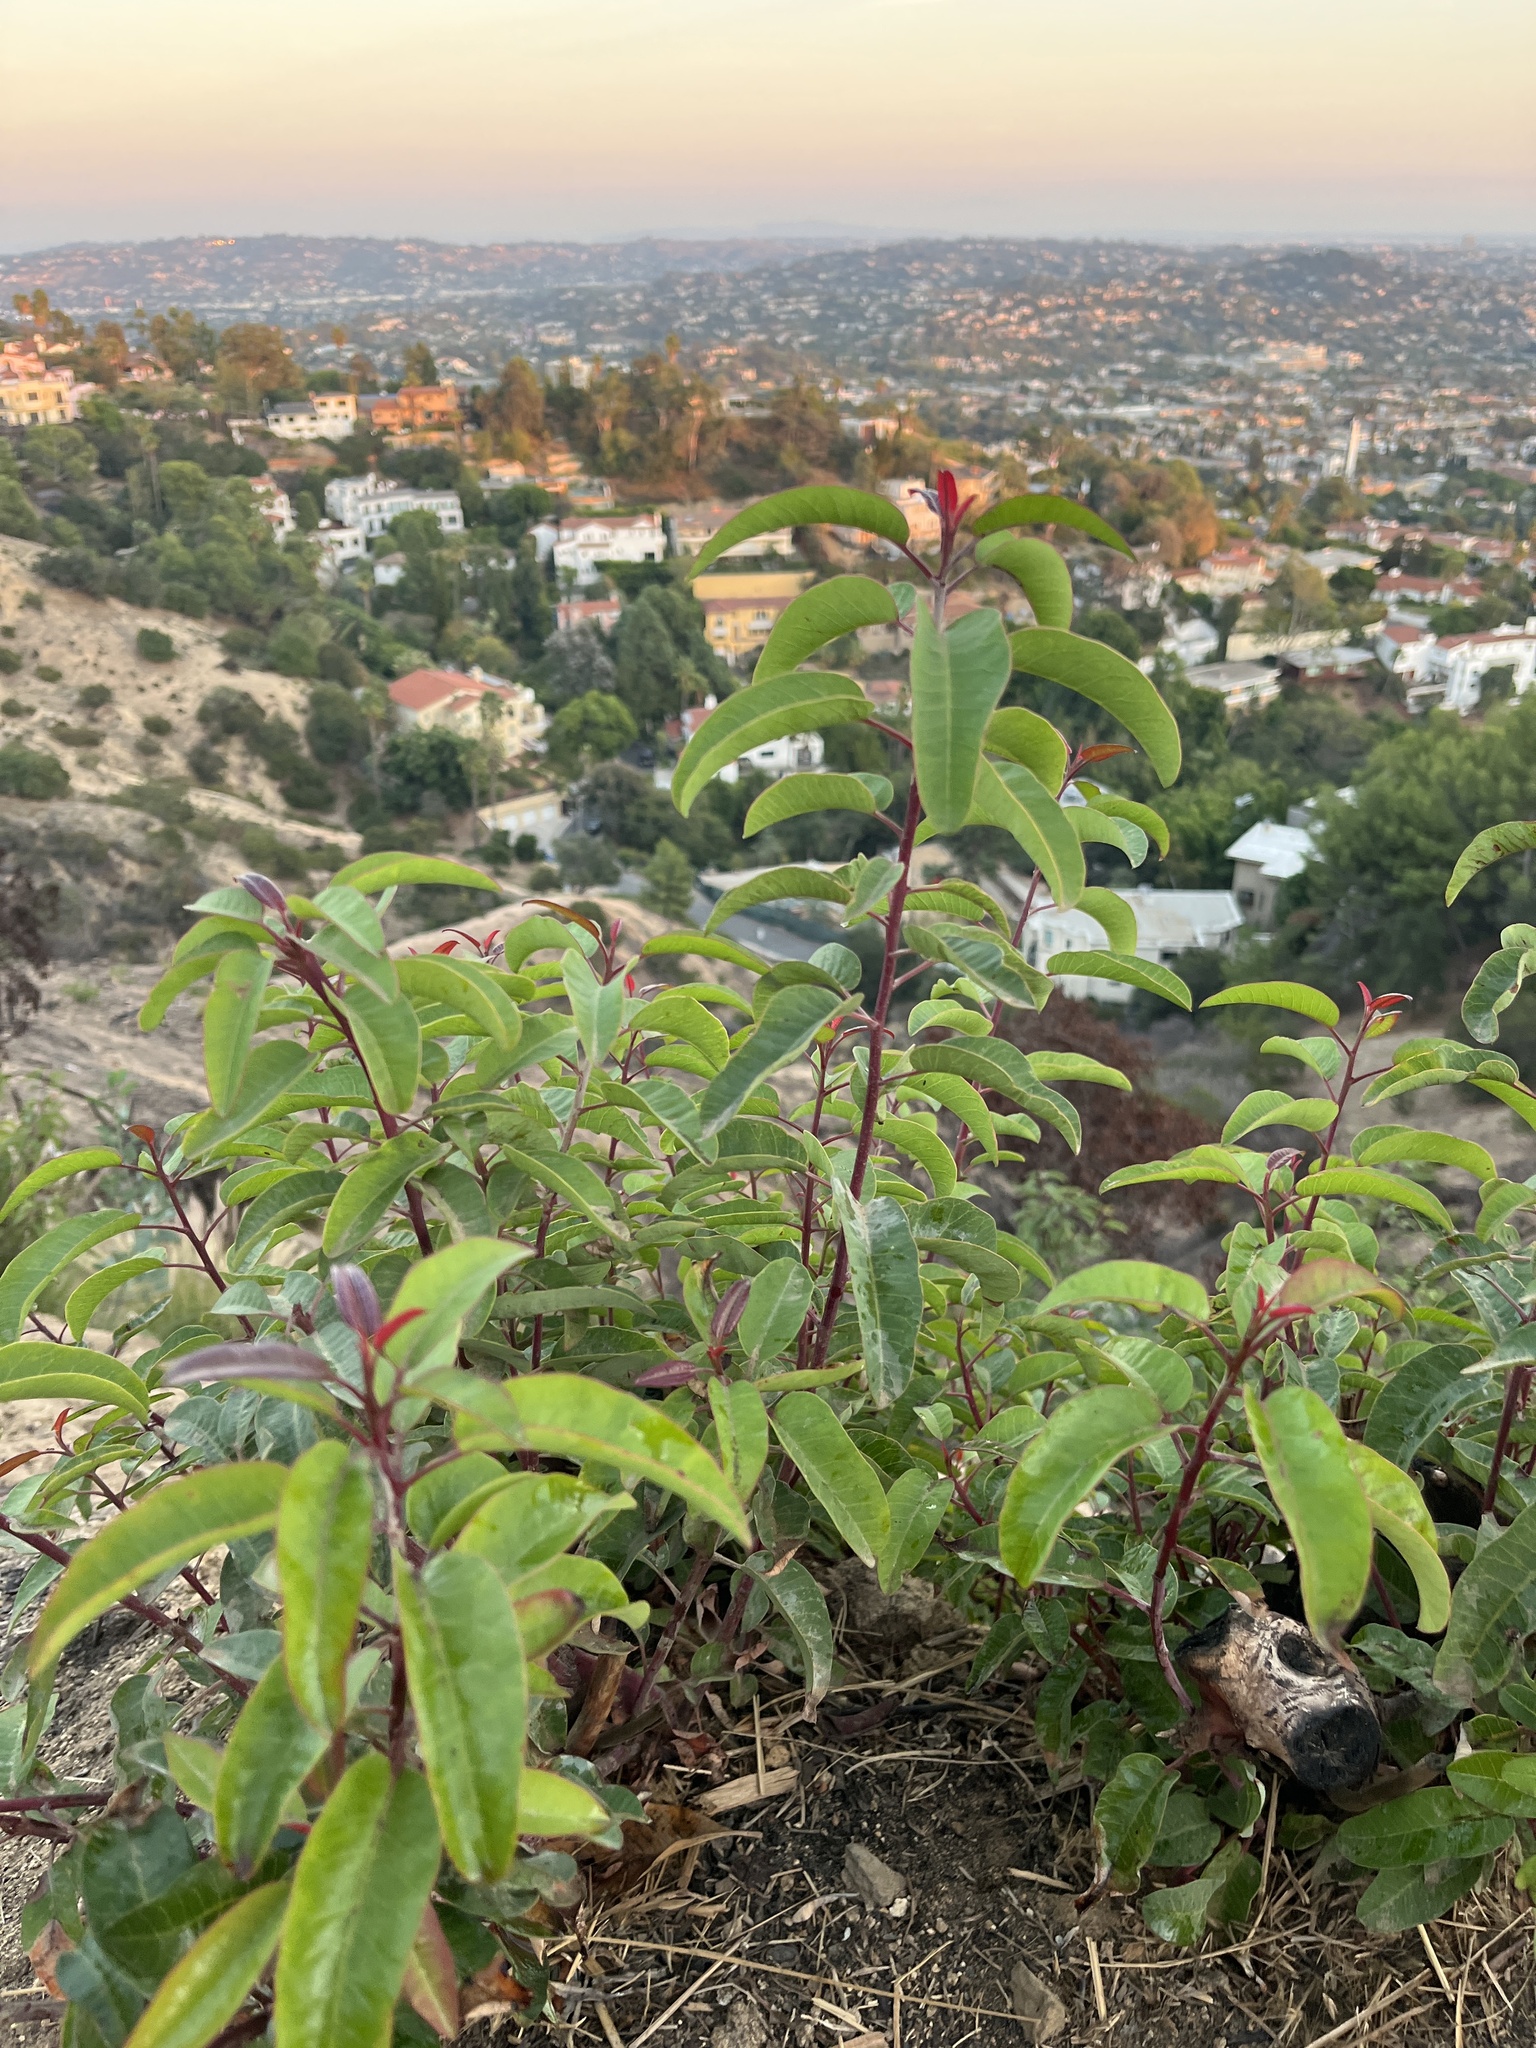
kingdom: Plantae
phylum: Tracheophyta
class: Magnoliopsida
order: Sapindales
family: Anacardiaceae
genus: Malosma
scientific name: Malosma laurina
